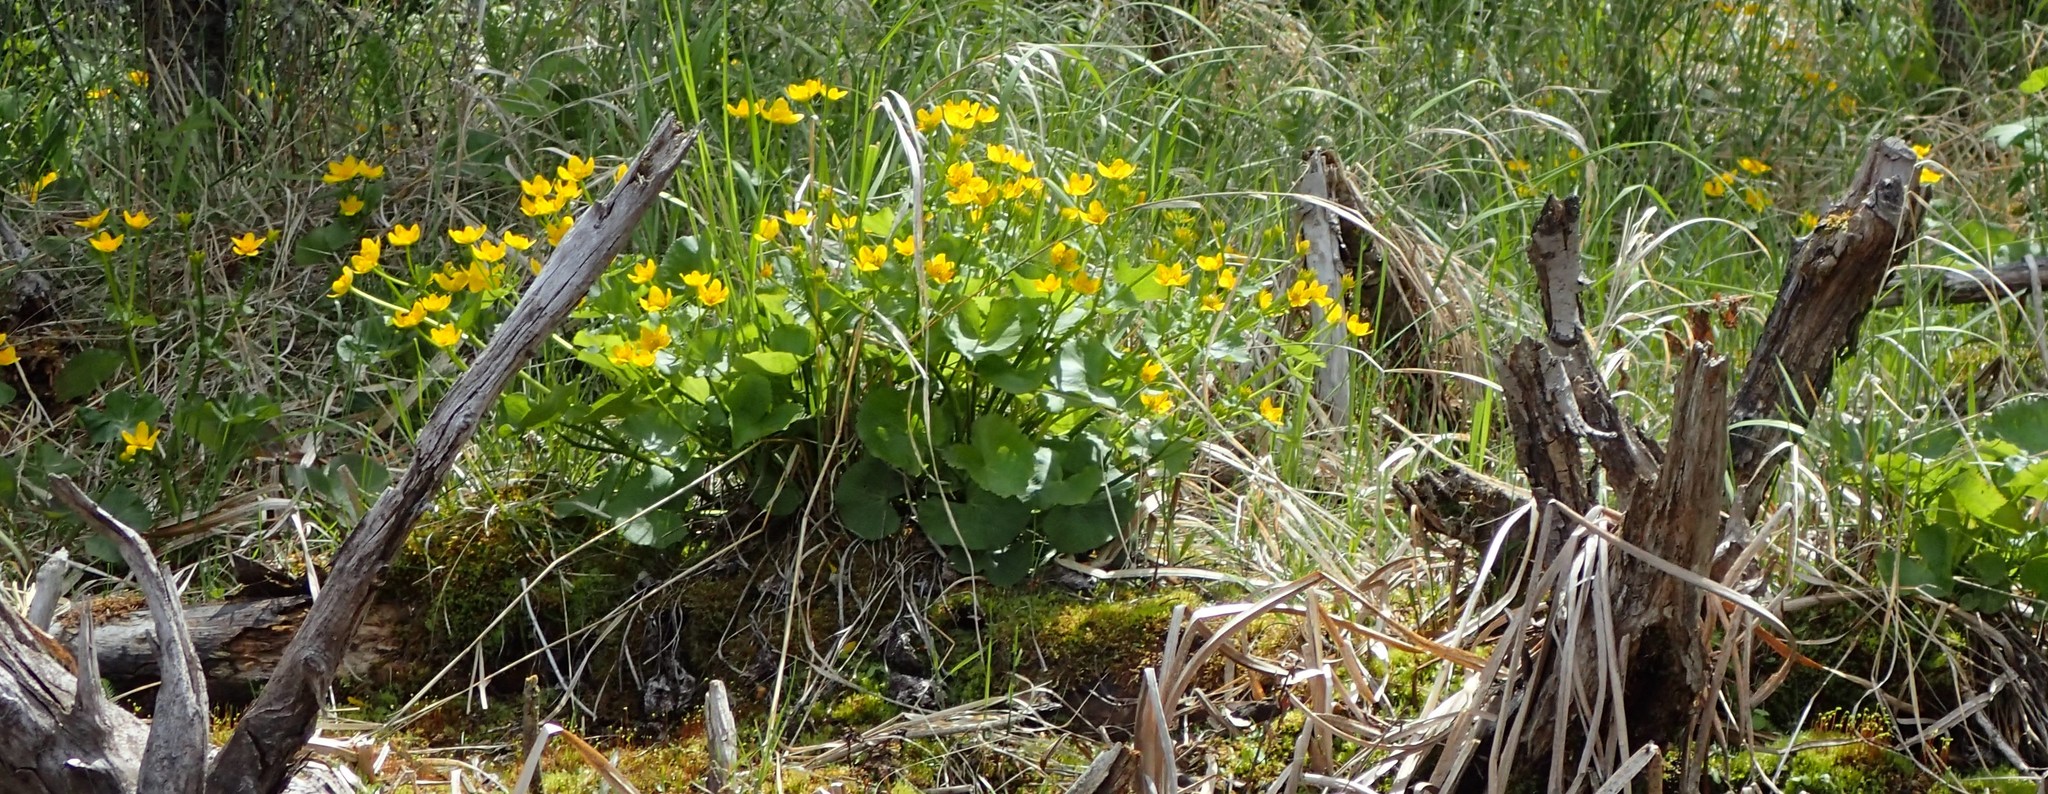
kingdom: Plantae
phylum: Tracheophyta
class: Magnoliopsida
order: Ranunculales
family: Ranunculaceae
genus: Caltha
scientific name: Caltha palustris
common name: Marsh marigold
